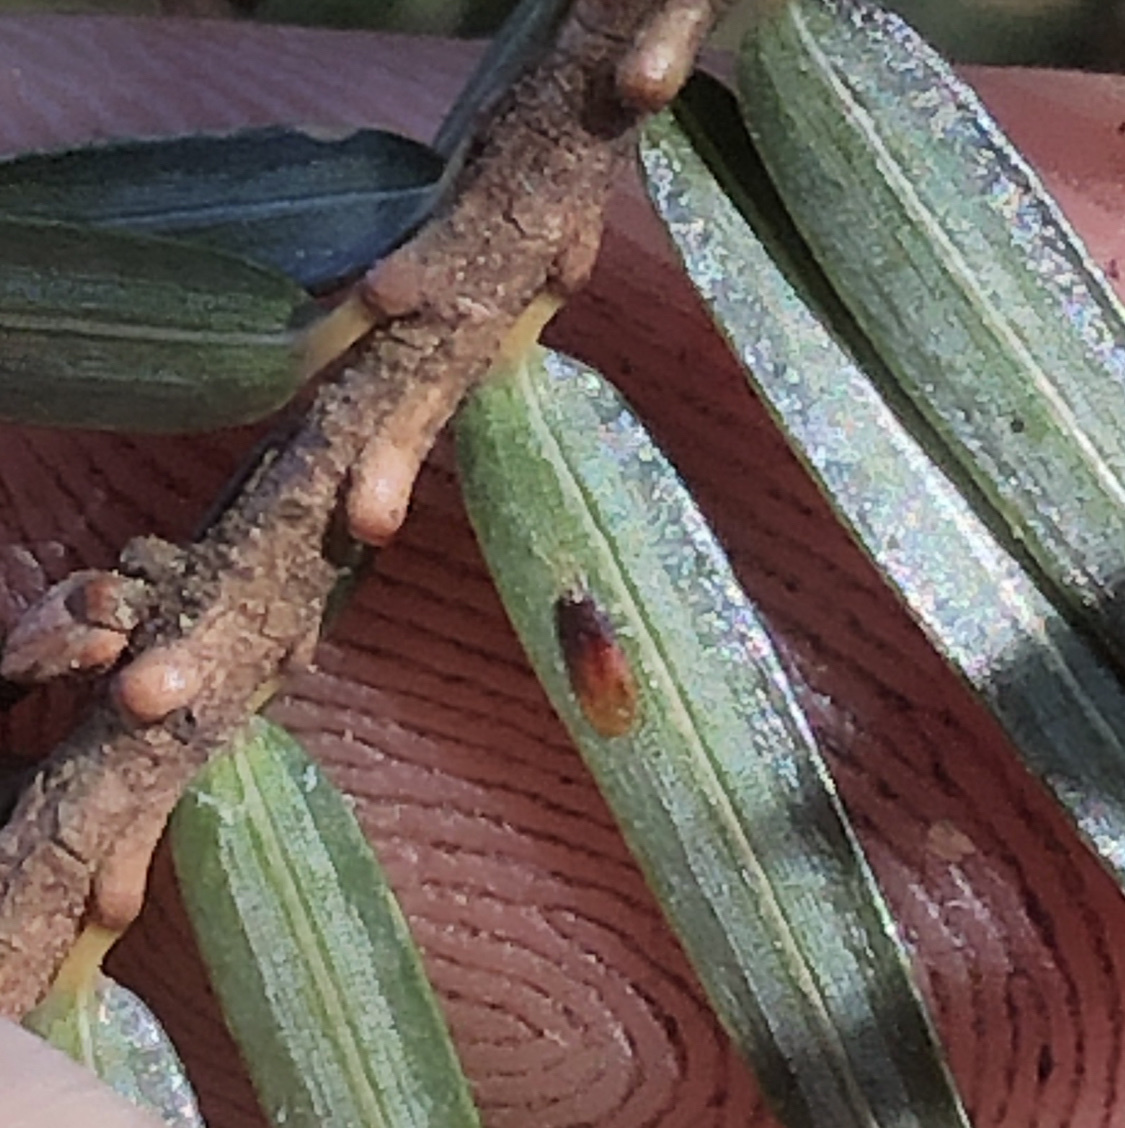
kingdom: Animalia
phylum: Arthropoda
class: Insecta
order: Hemiptera
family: Diaspididae
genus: Fiorinia
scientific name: Fiorinia externa
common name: Elongate hemlock scale
